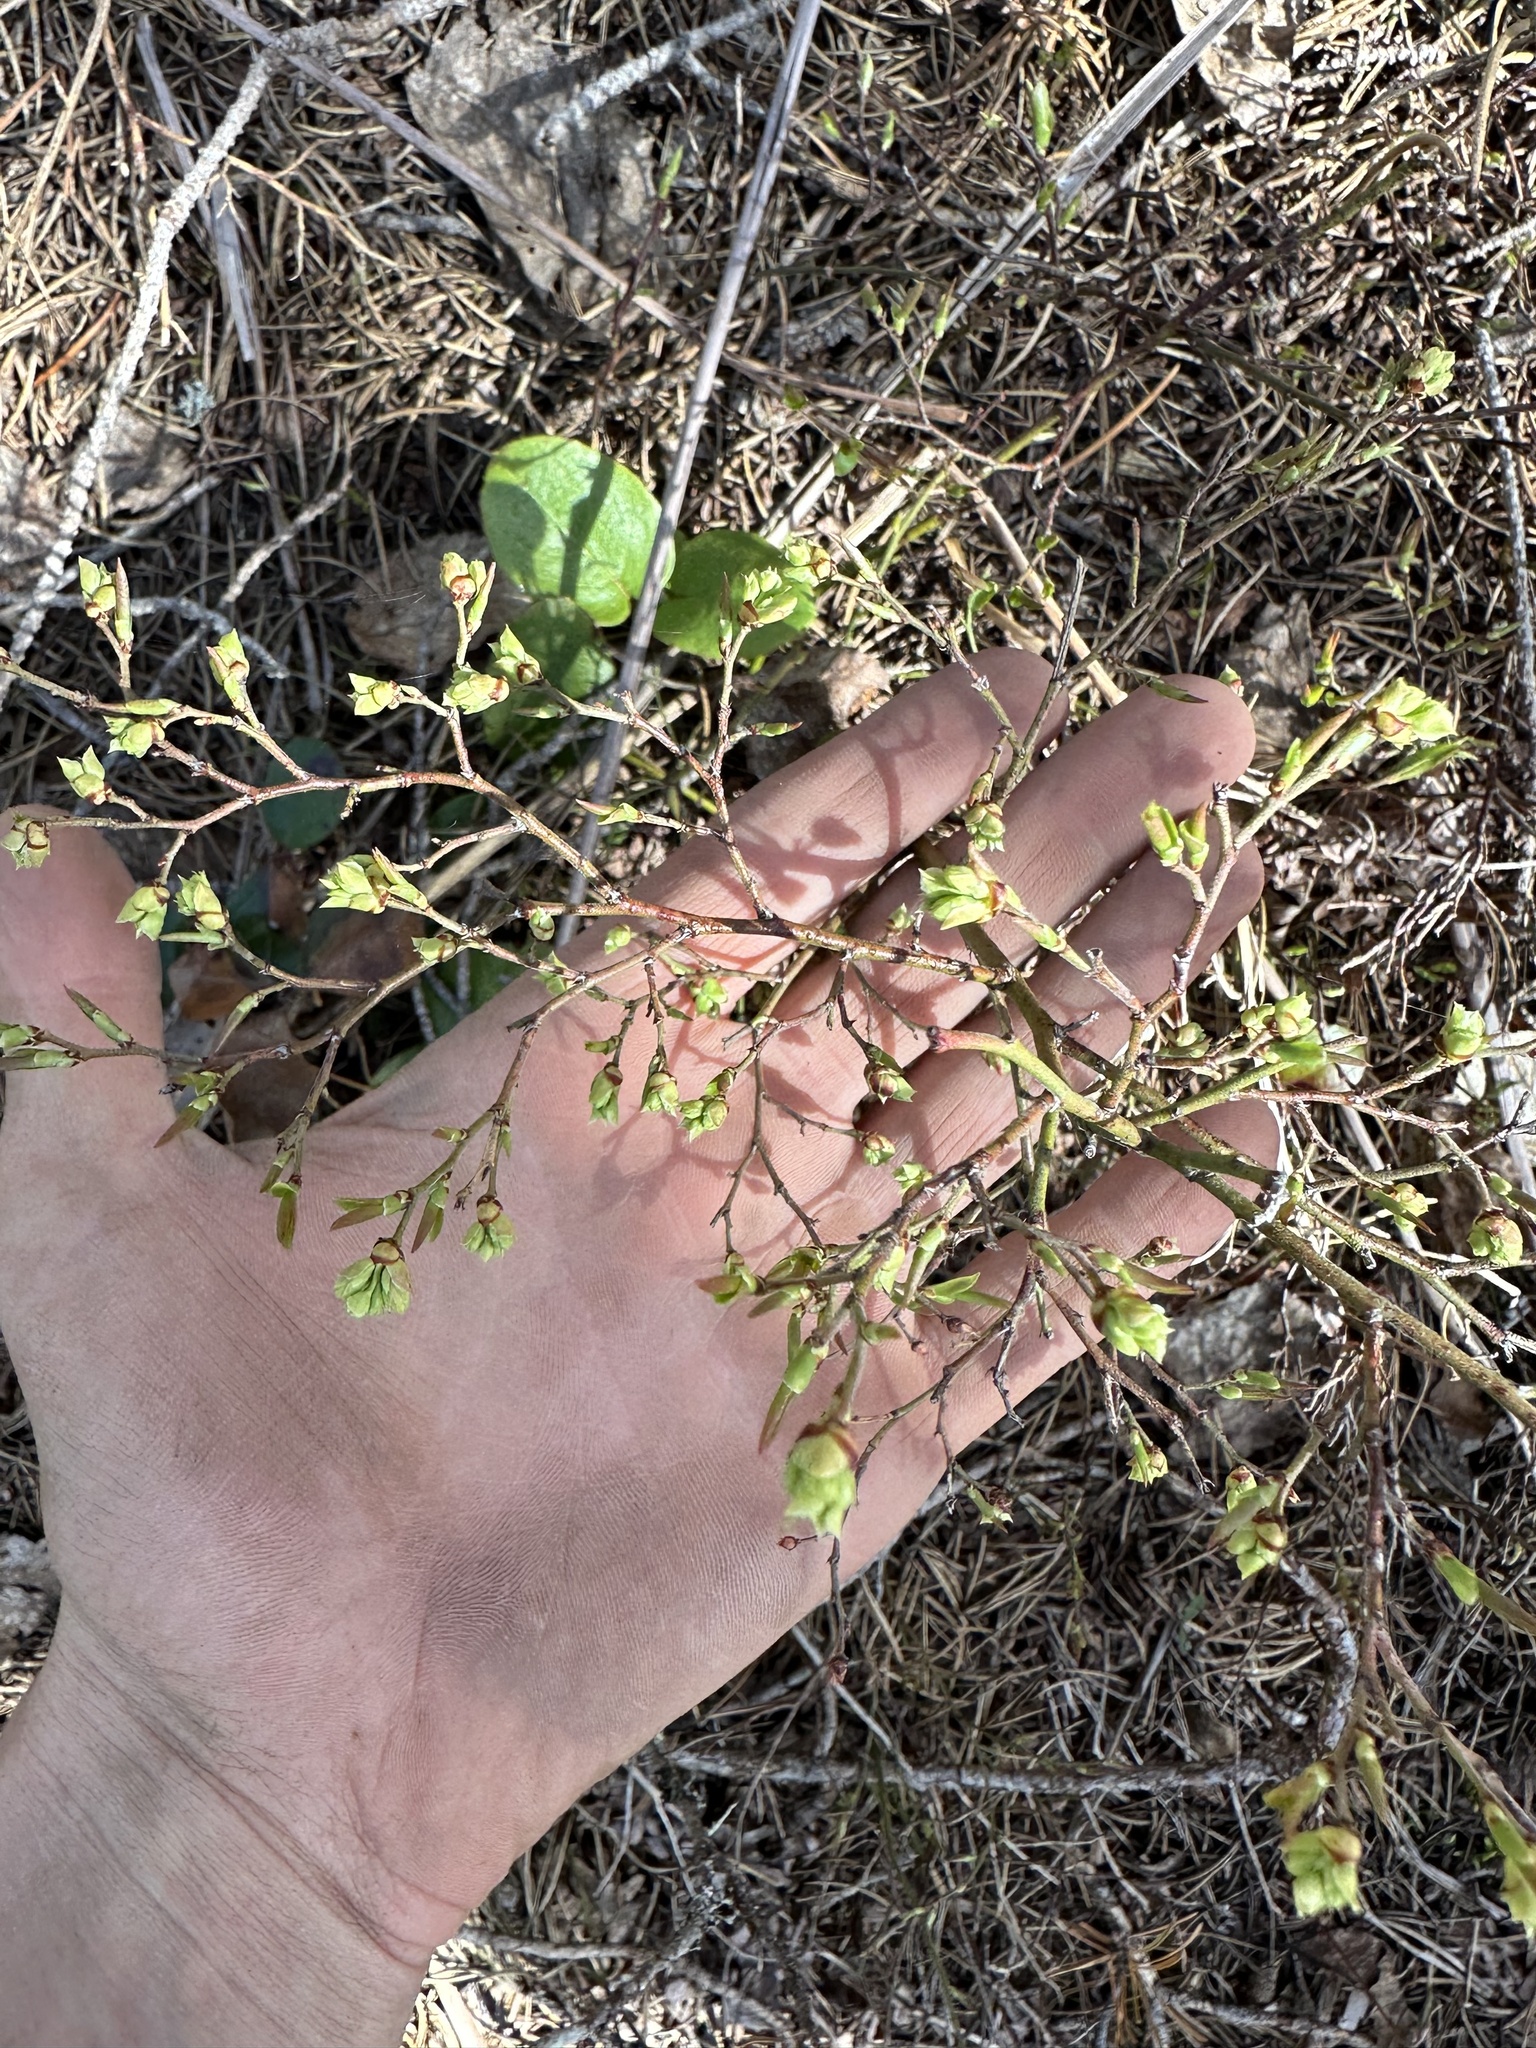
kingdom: Plantae
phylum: Tracheophyta
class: Magnoliopsida
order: Ericales
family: Ericaceae
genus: Vaccinium
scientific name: Vaccinium angustifolium
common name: Early lowbush blueberry
